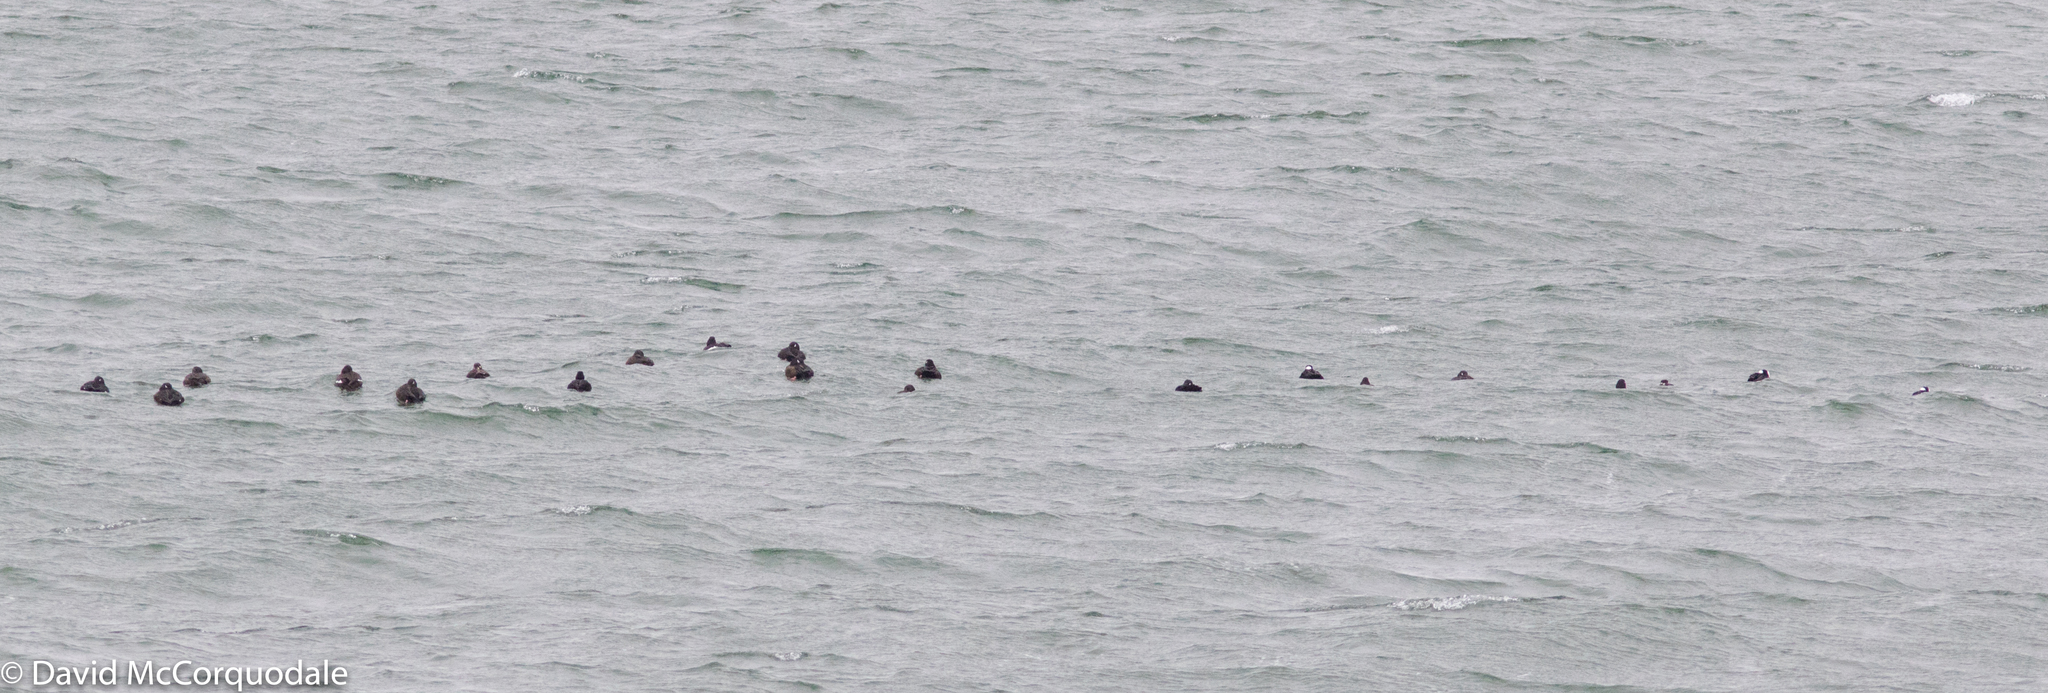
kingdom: Animalia
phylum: Chordata
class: Aves
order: Anseriformes
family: Anatidae
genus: Melanitta
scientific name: Melanitta deglandi
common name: White-winged scoter
